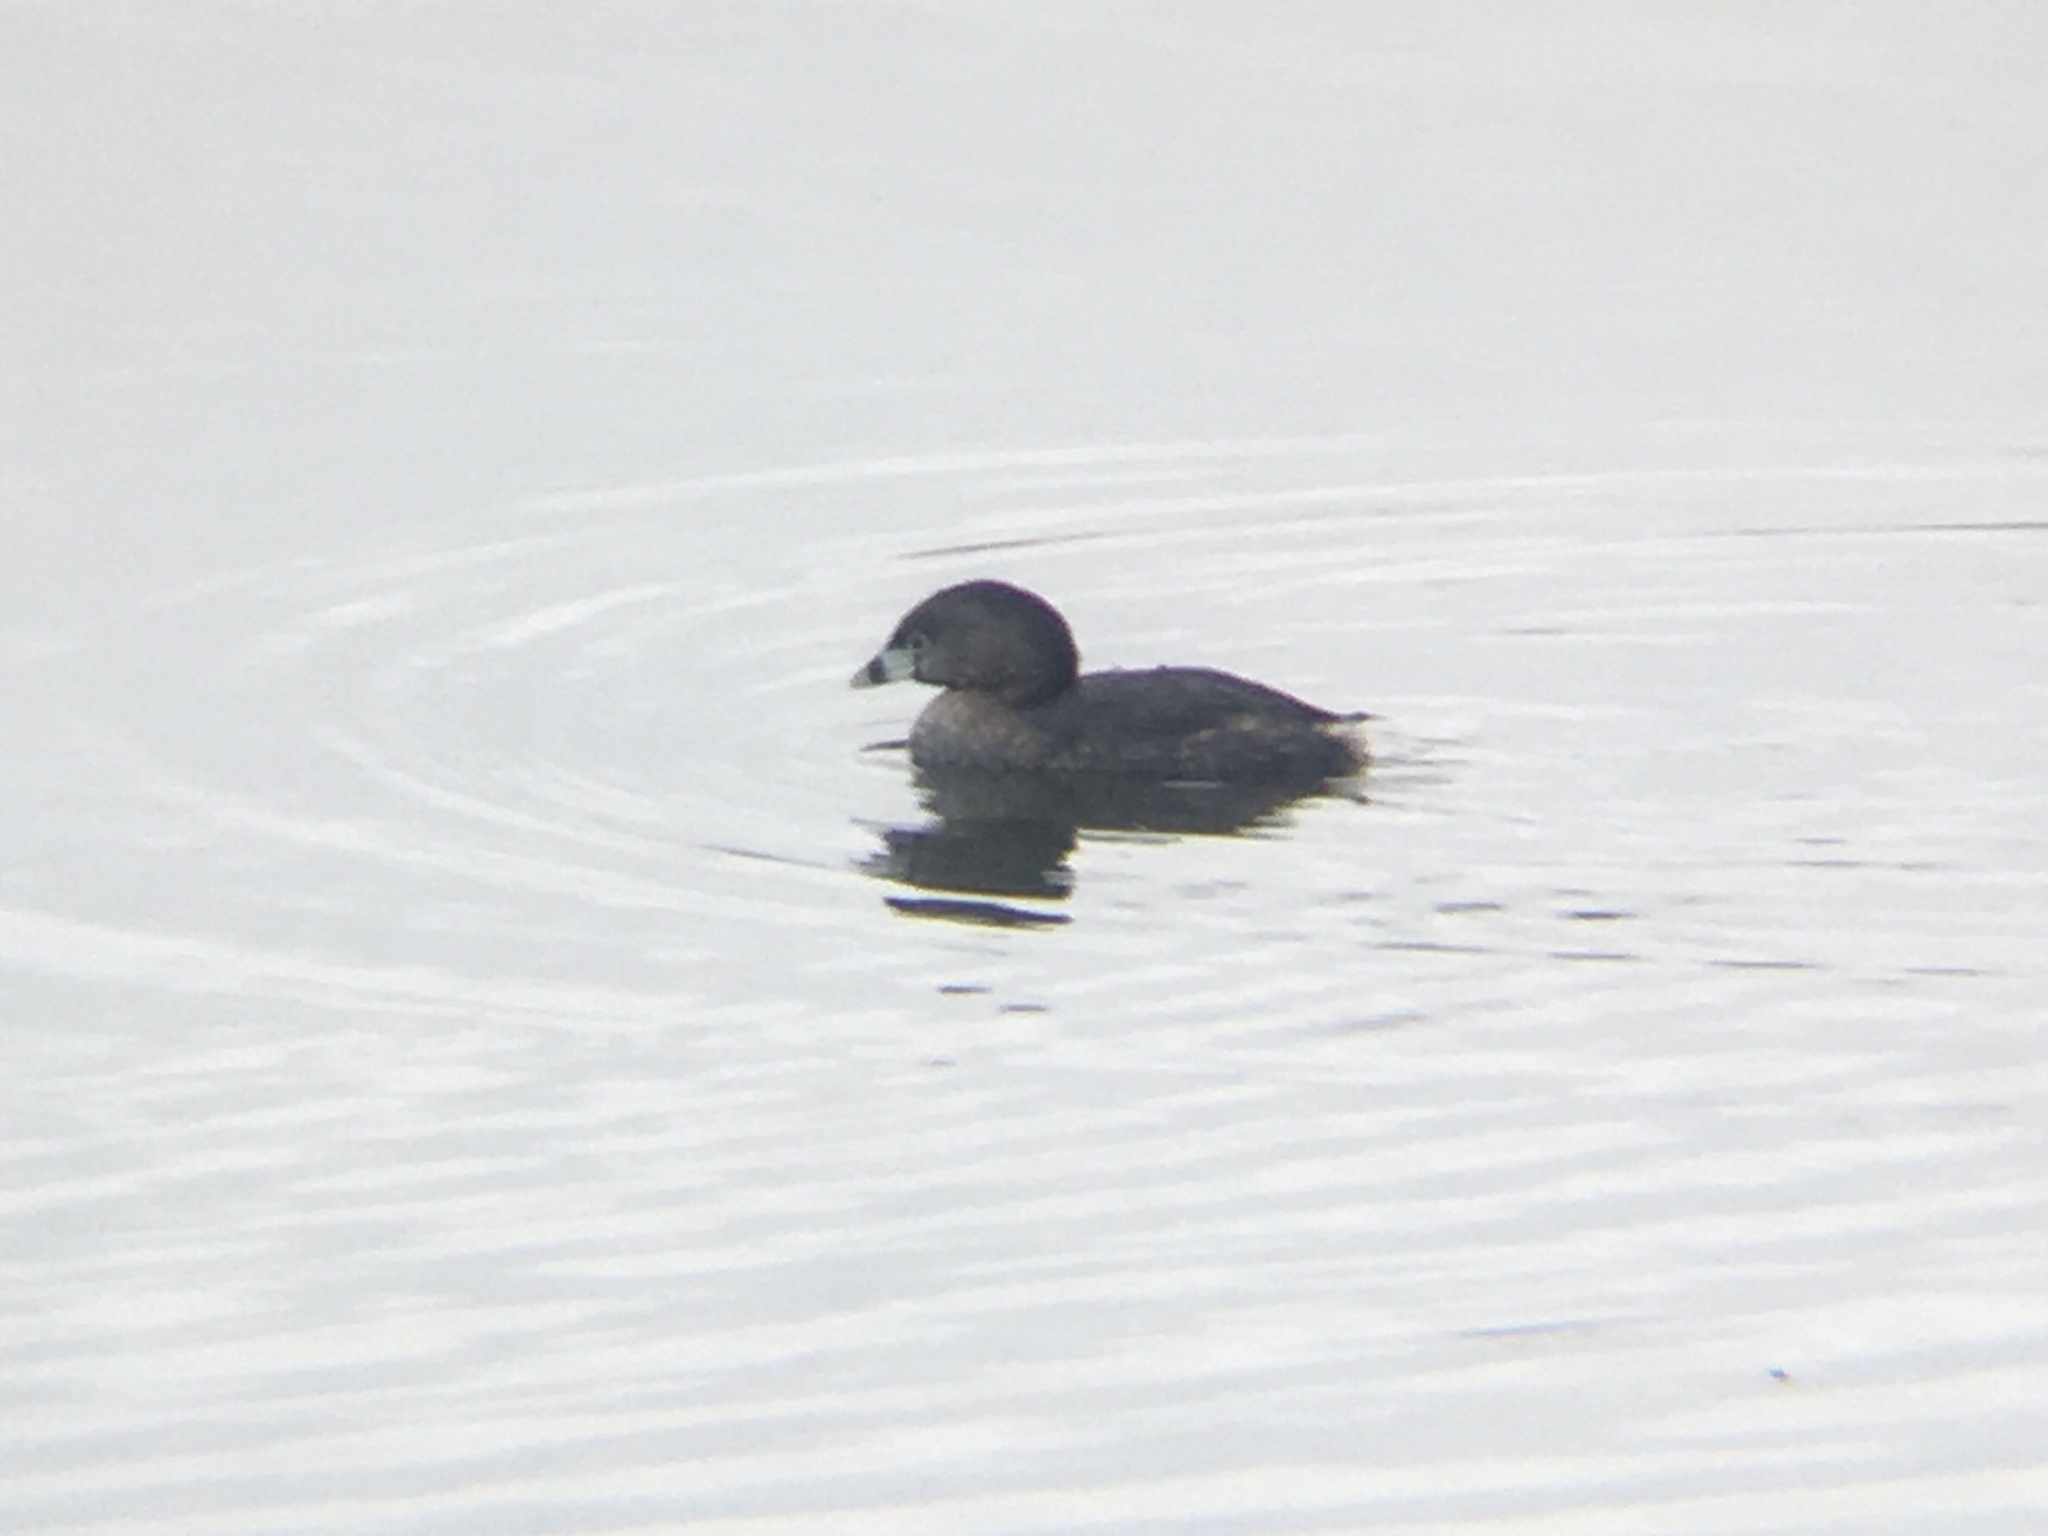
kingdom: Animalia
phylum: Chordata
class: Aves
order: Podicipediformes
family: Podicipedidae
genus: Podilymbus
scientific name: Podilymbus podiceps
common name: Pied-billed grebe
